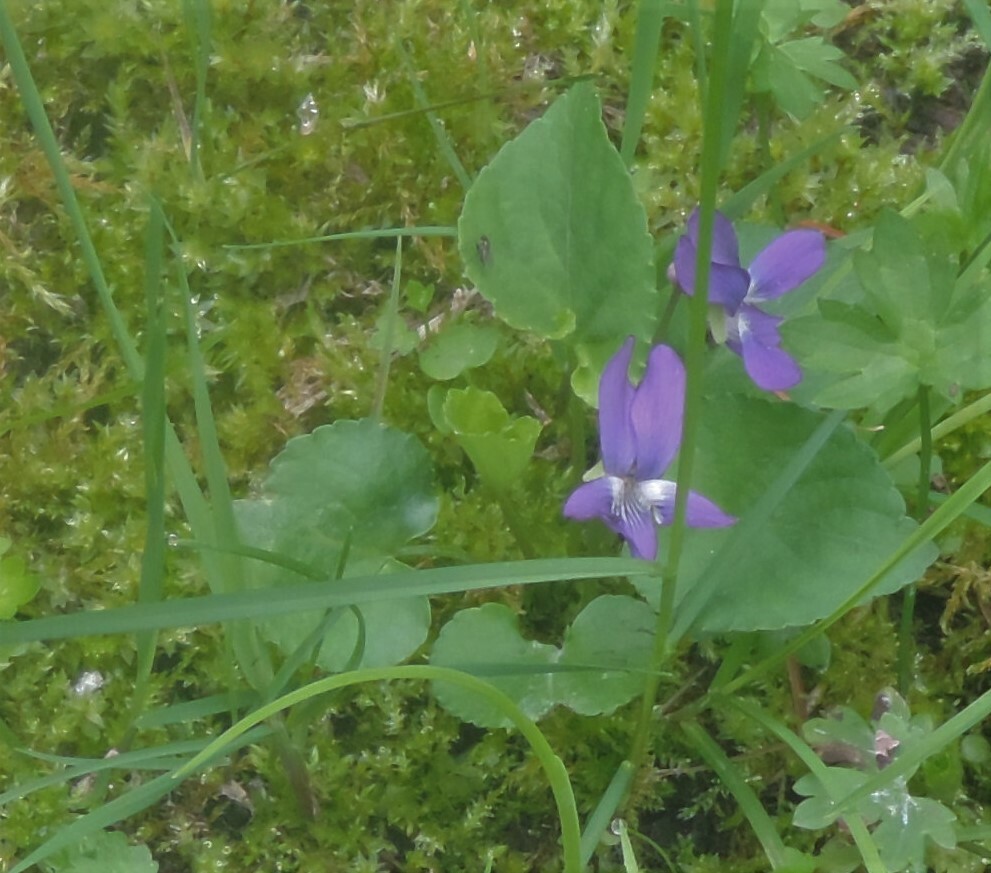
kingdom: Plantae
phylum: Tracheophyta
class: Magnoliopsida
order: Malpighiales
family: Violaceae
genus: Viola
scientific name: Viola nephrophylla
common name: Blue meadow violet
